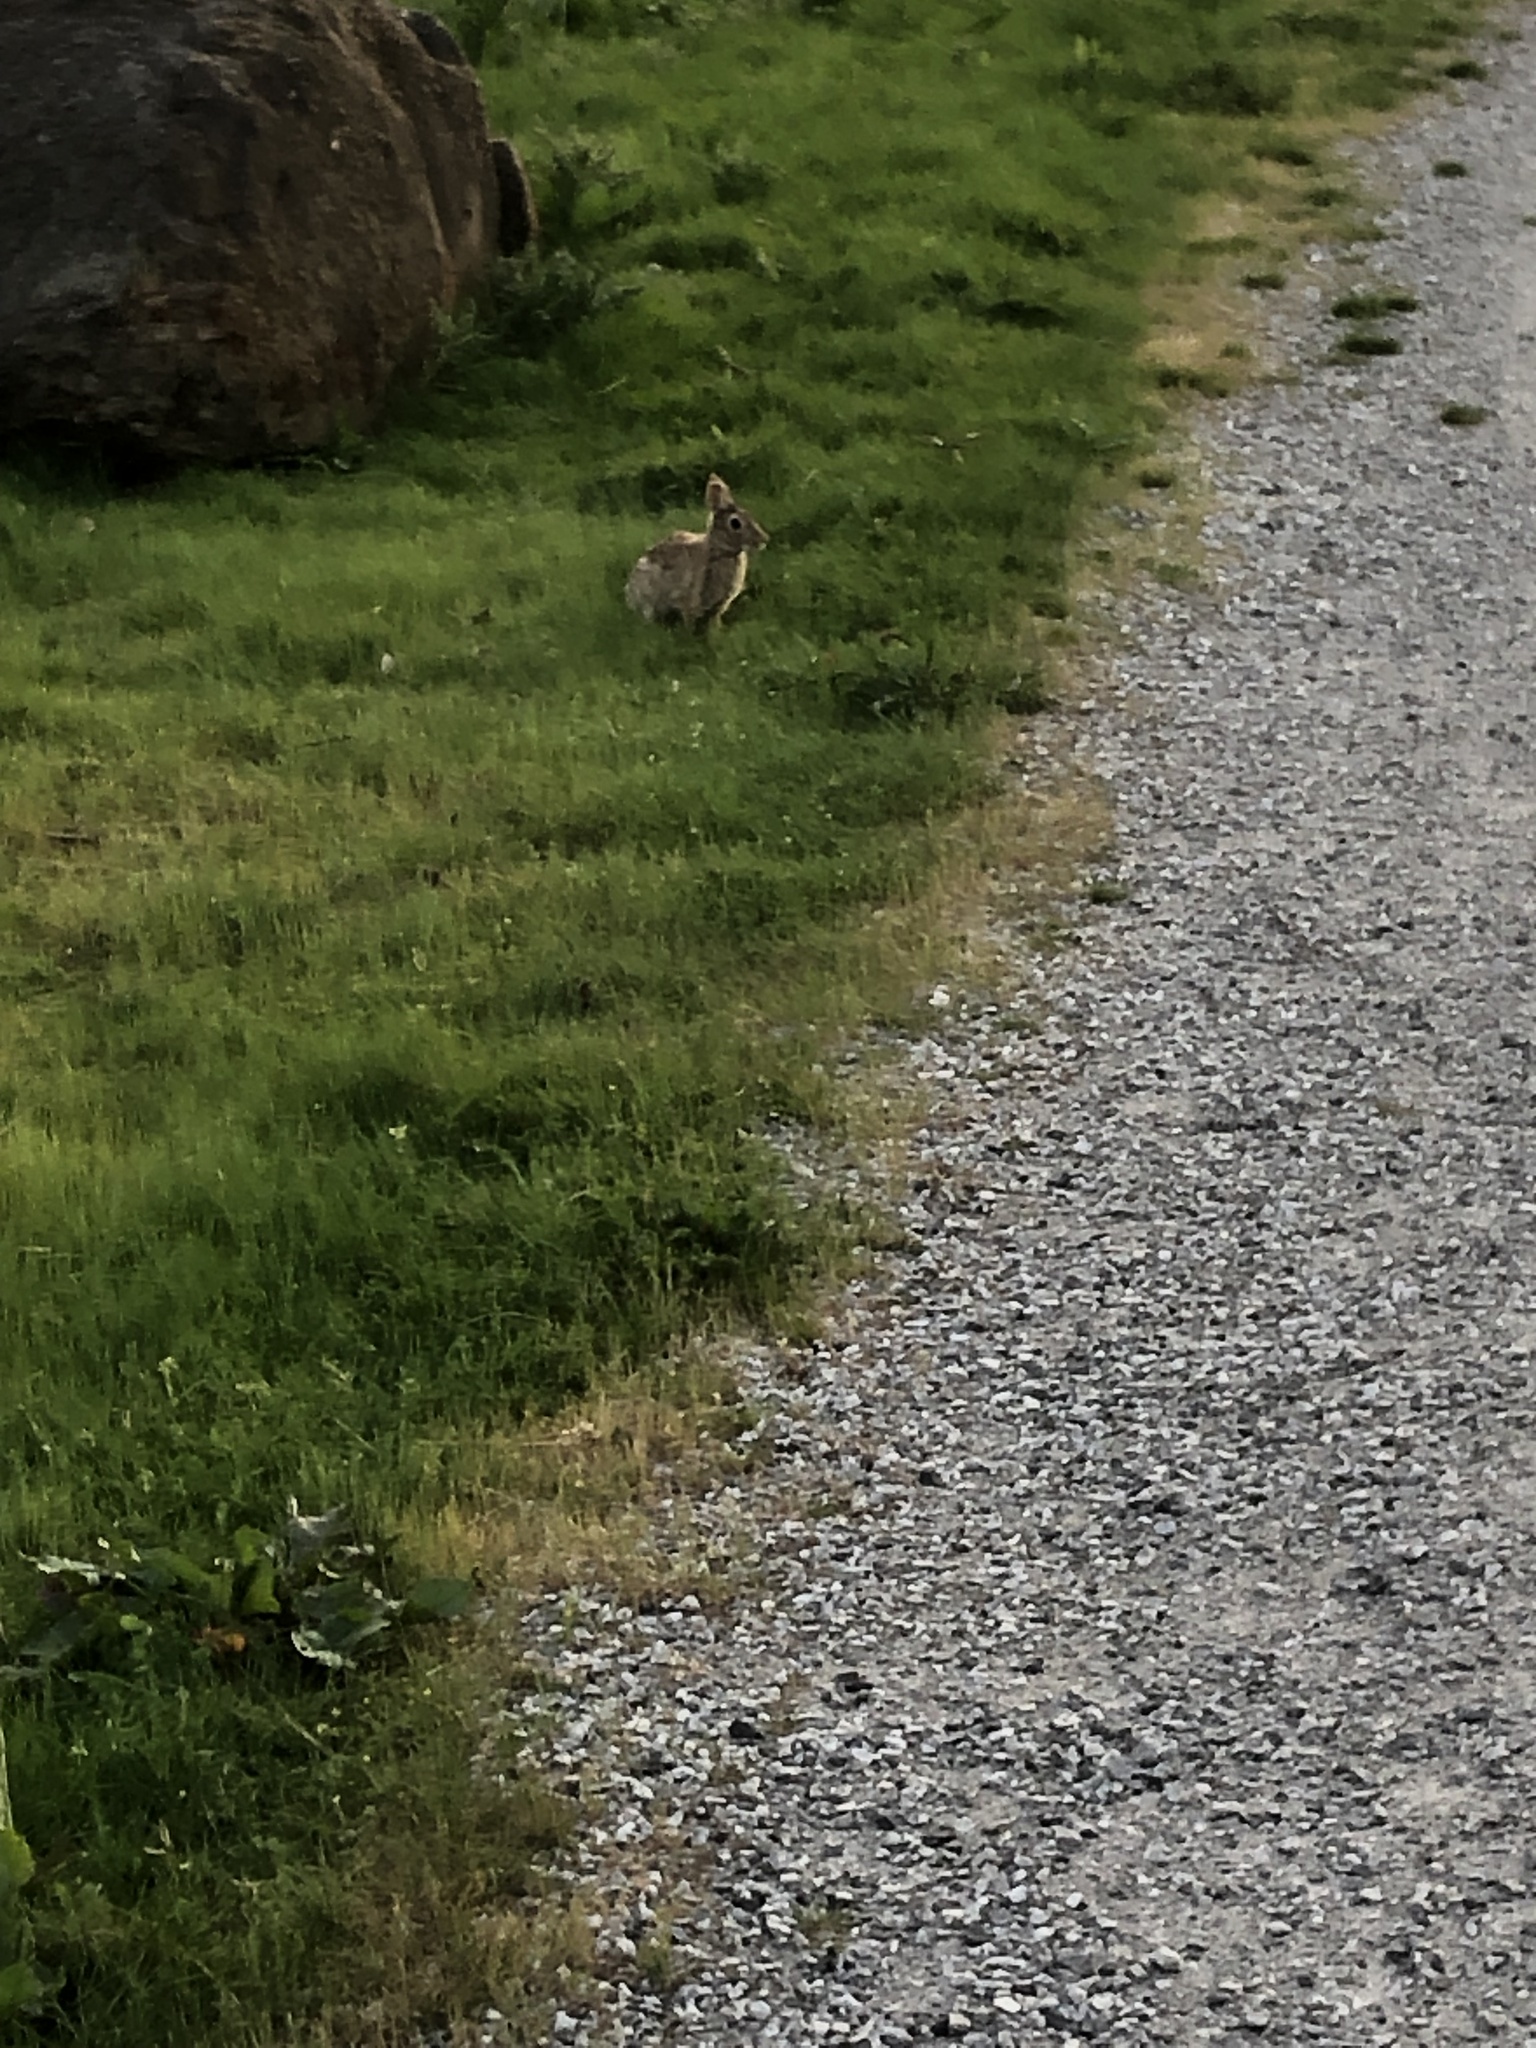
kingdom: Animalia
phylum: Chordata
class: Mammalia
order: Lagomorpha
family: Leporidae
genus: Sylvilagus
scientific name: Sylvilagus floridanus
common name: Eastern cottontail
